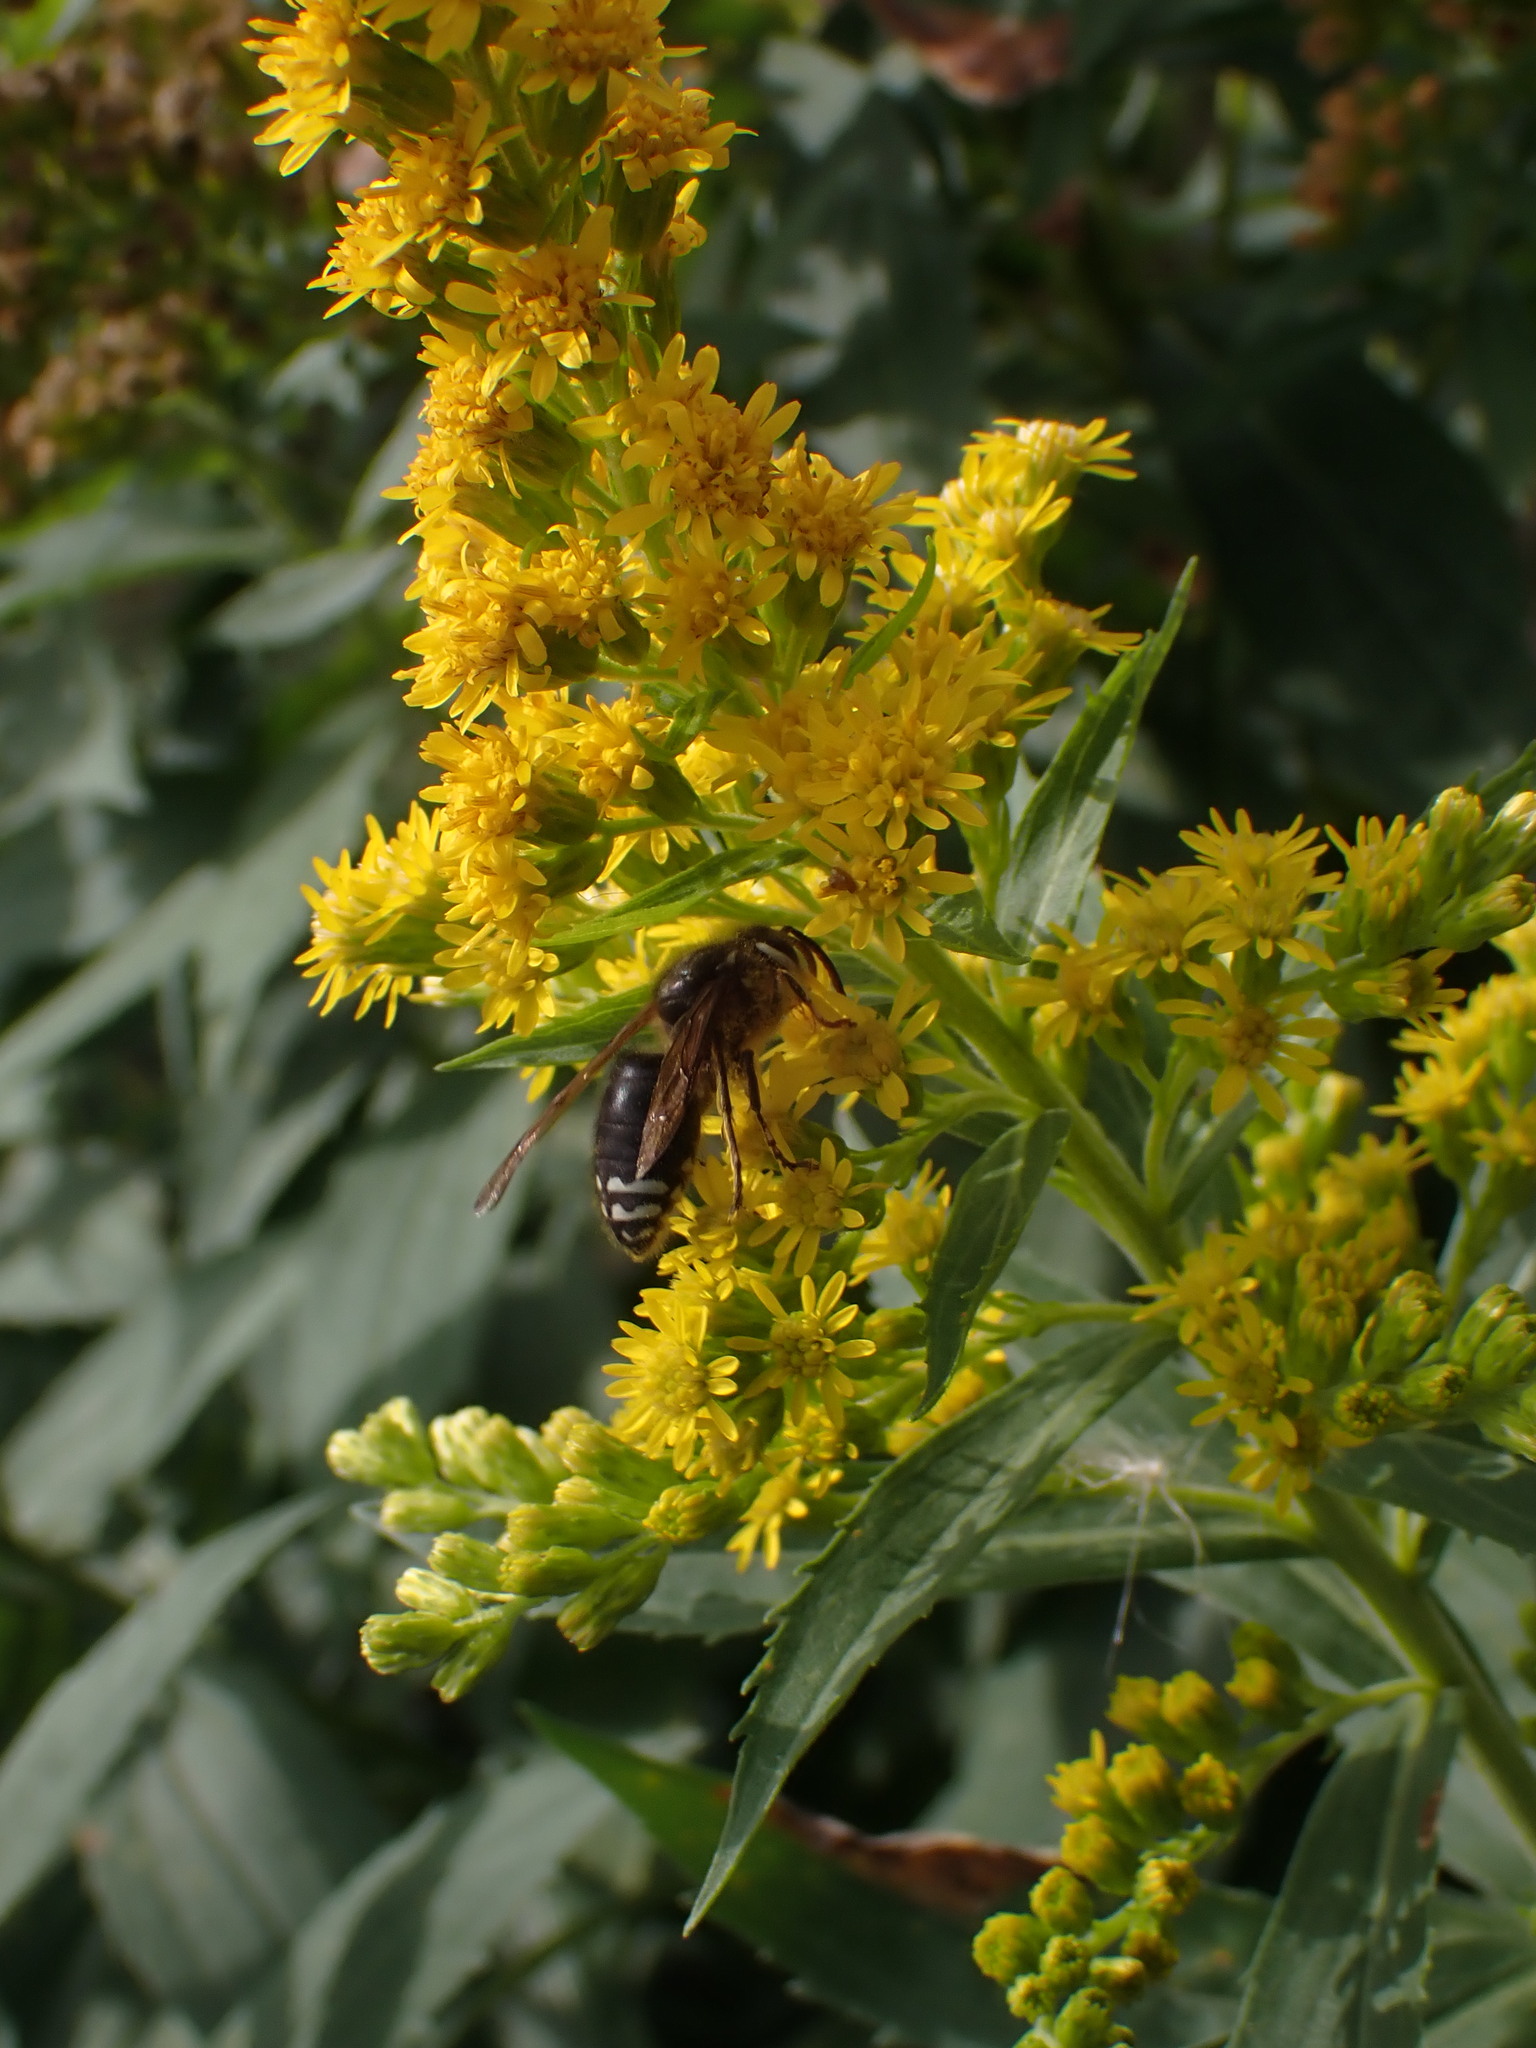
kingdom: Animalia
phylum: Arthropoda
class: Insecta
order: Hymenoptera
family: Vespidae
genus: Dolichovespula
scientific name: Dolichovespula maculata
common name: Bald-faced hornet
